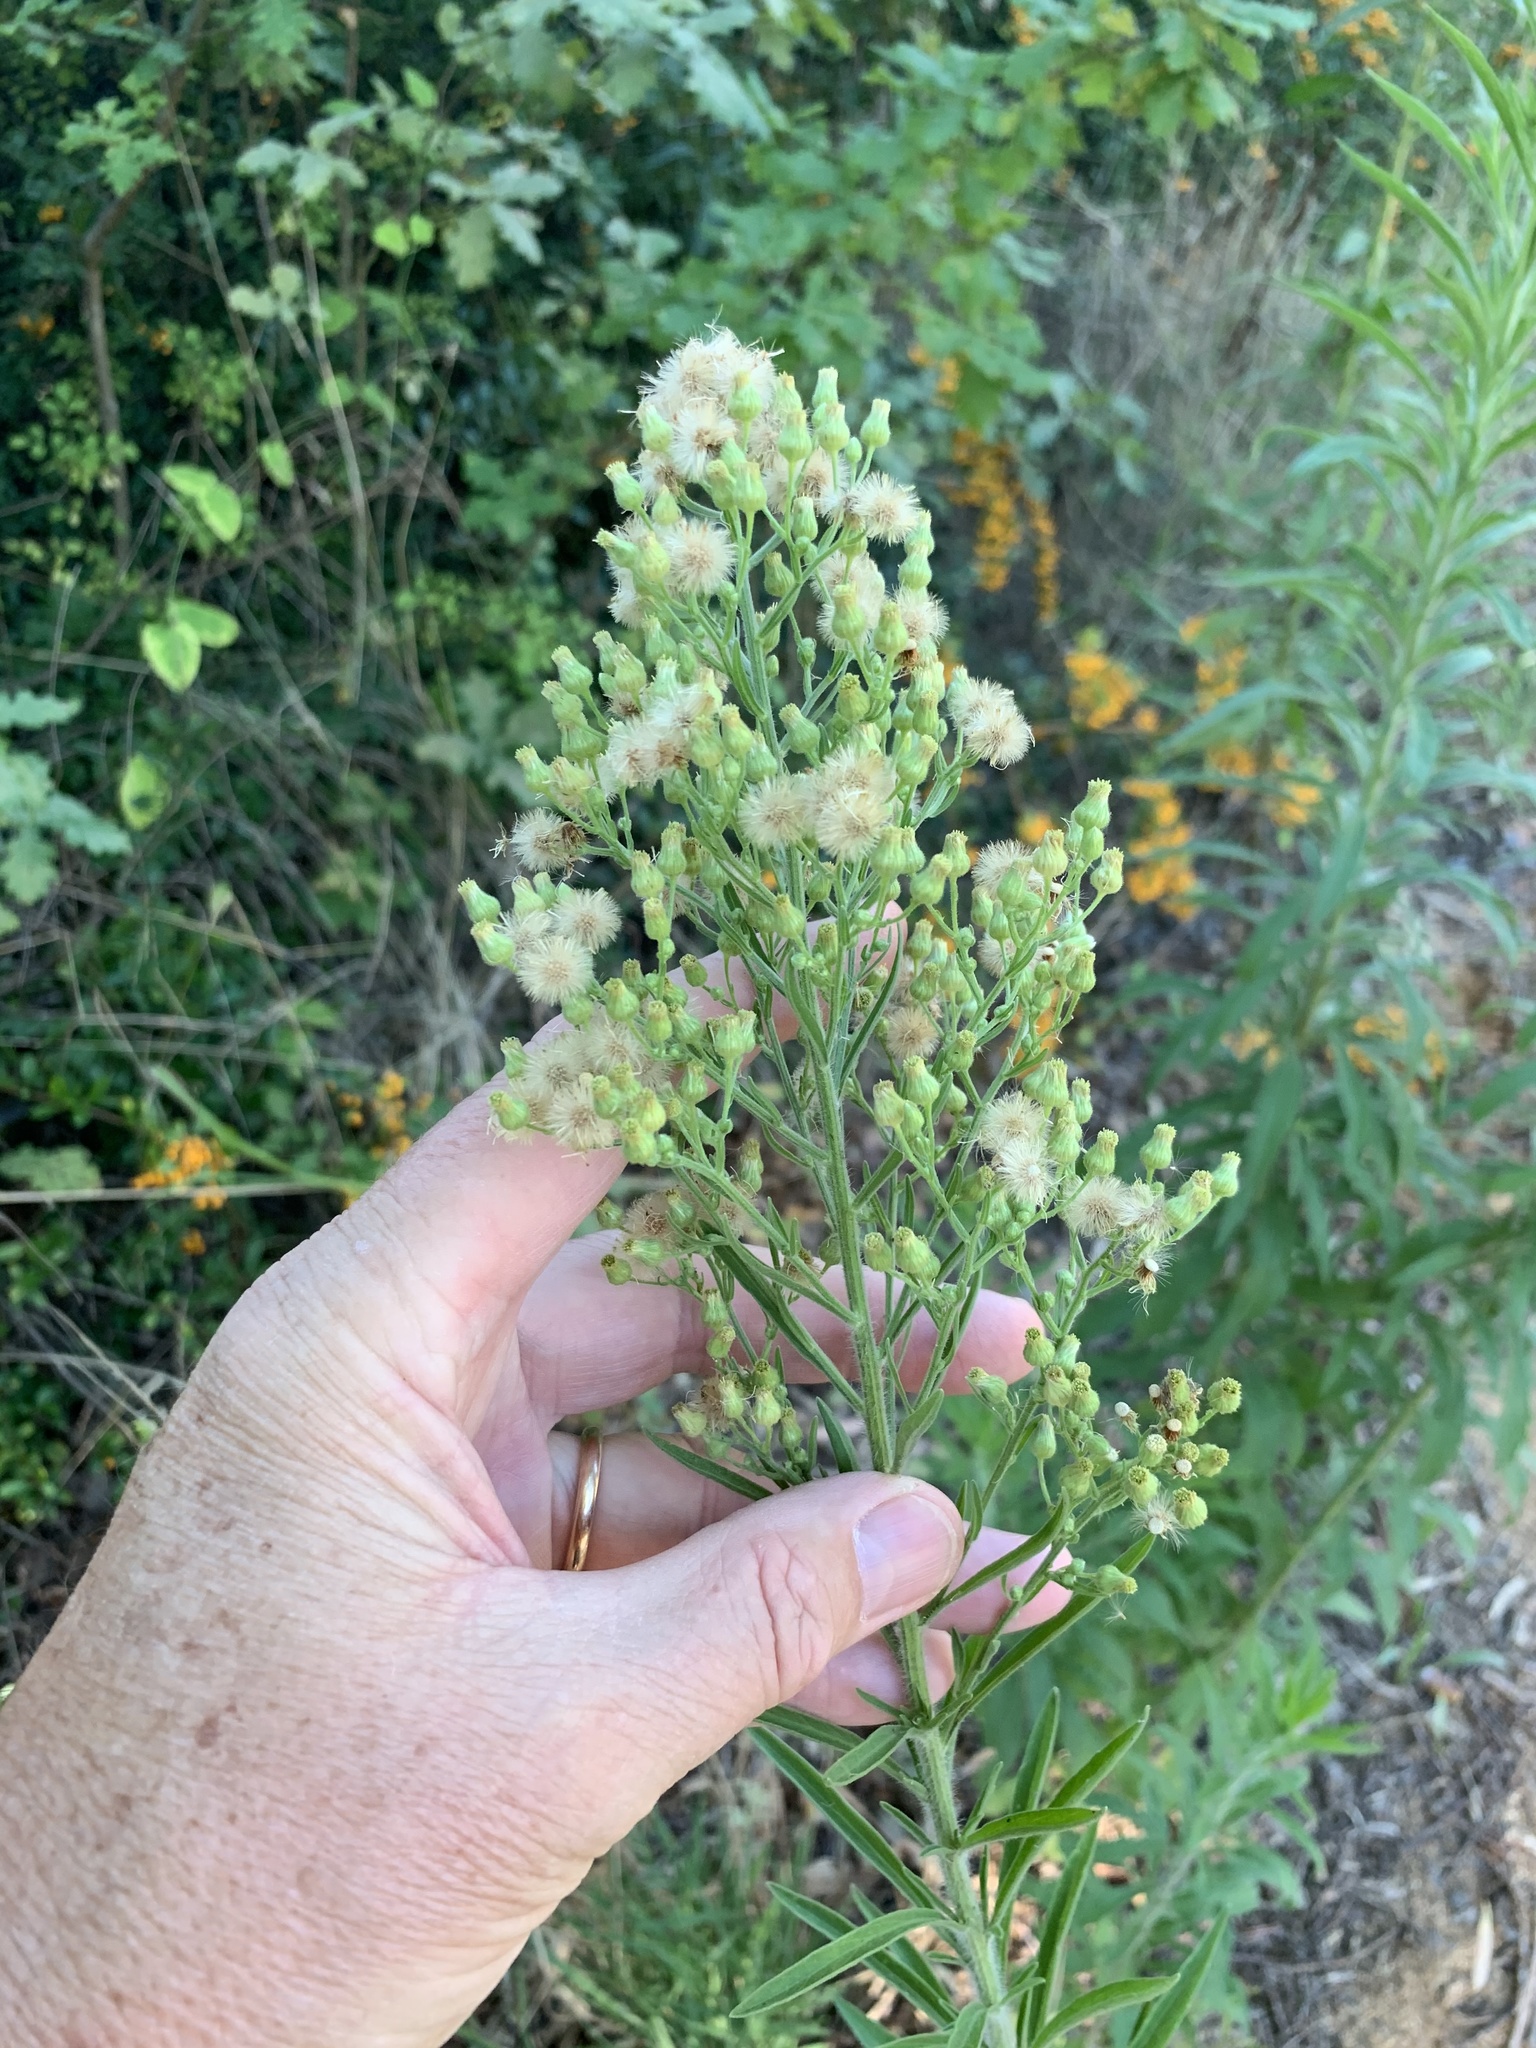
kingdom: Plantae
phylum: Tracheophyta
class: Magnoliopsida
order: Asterales
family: Asteraceae
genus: Erigeron
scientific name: Erigeron sumatrensis
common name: Daisy
